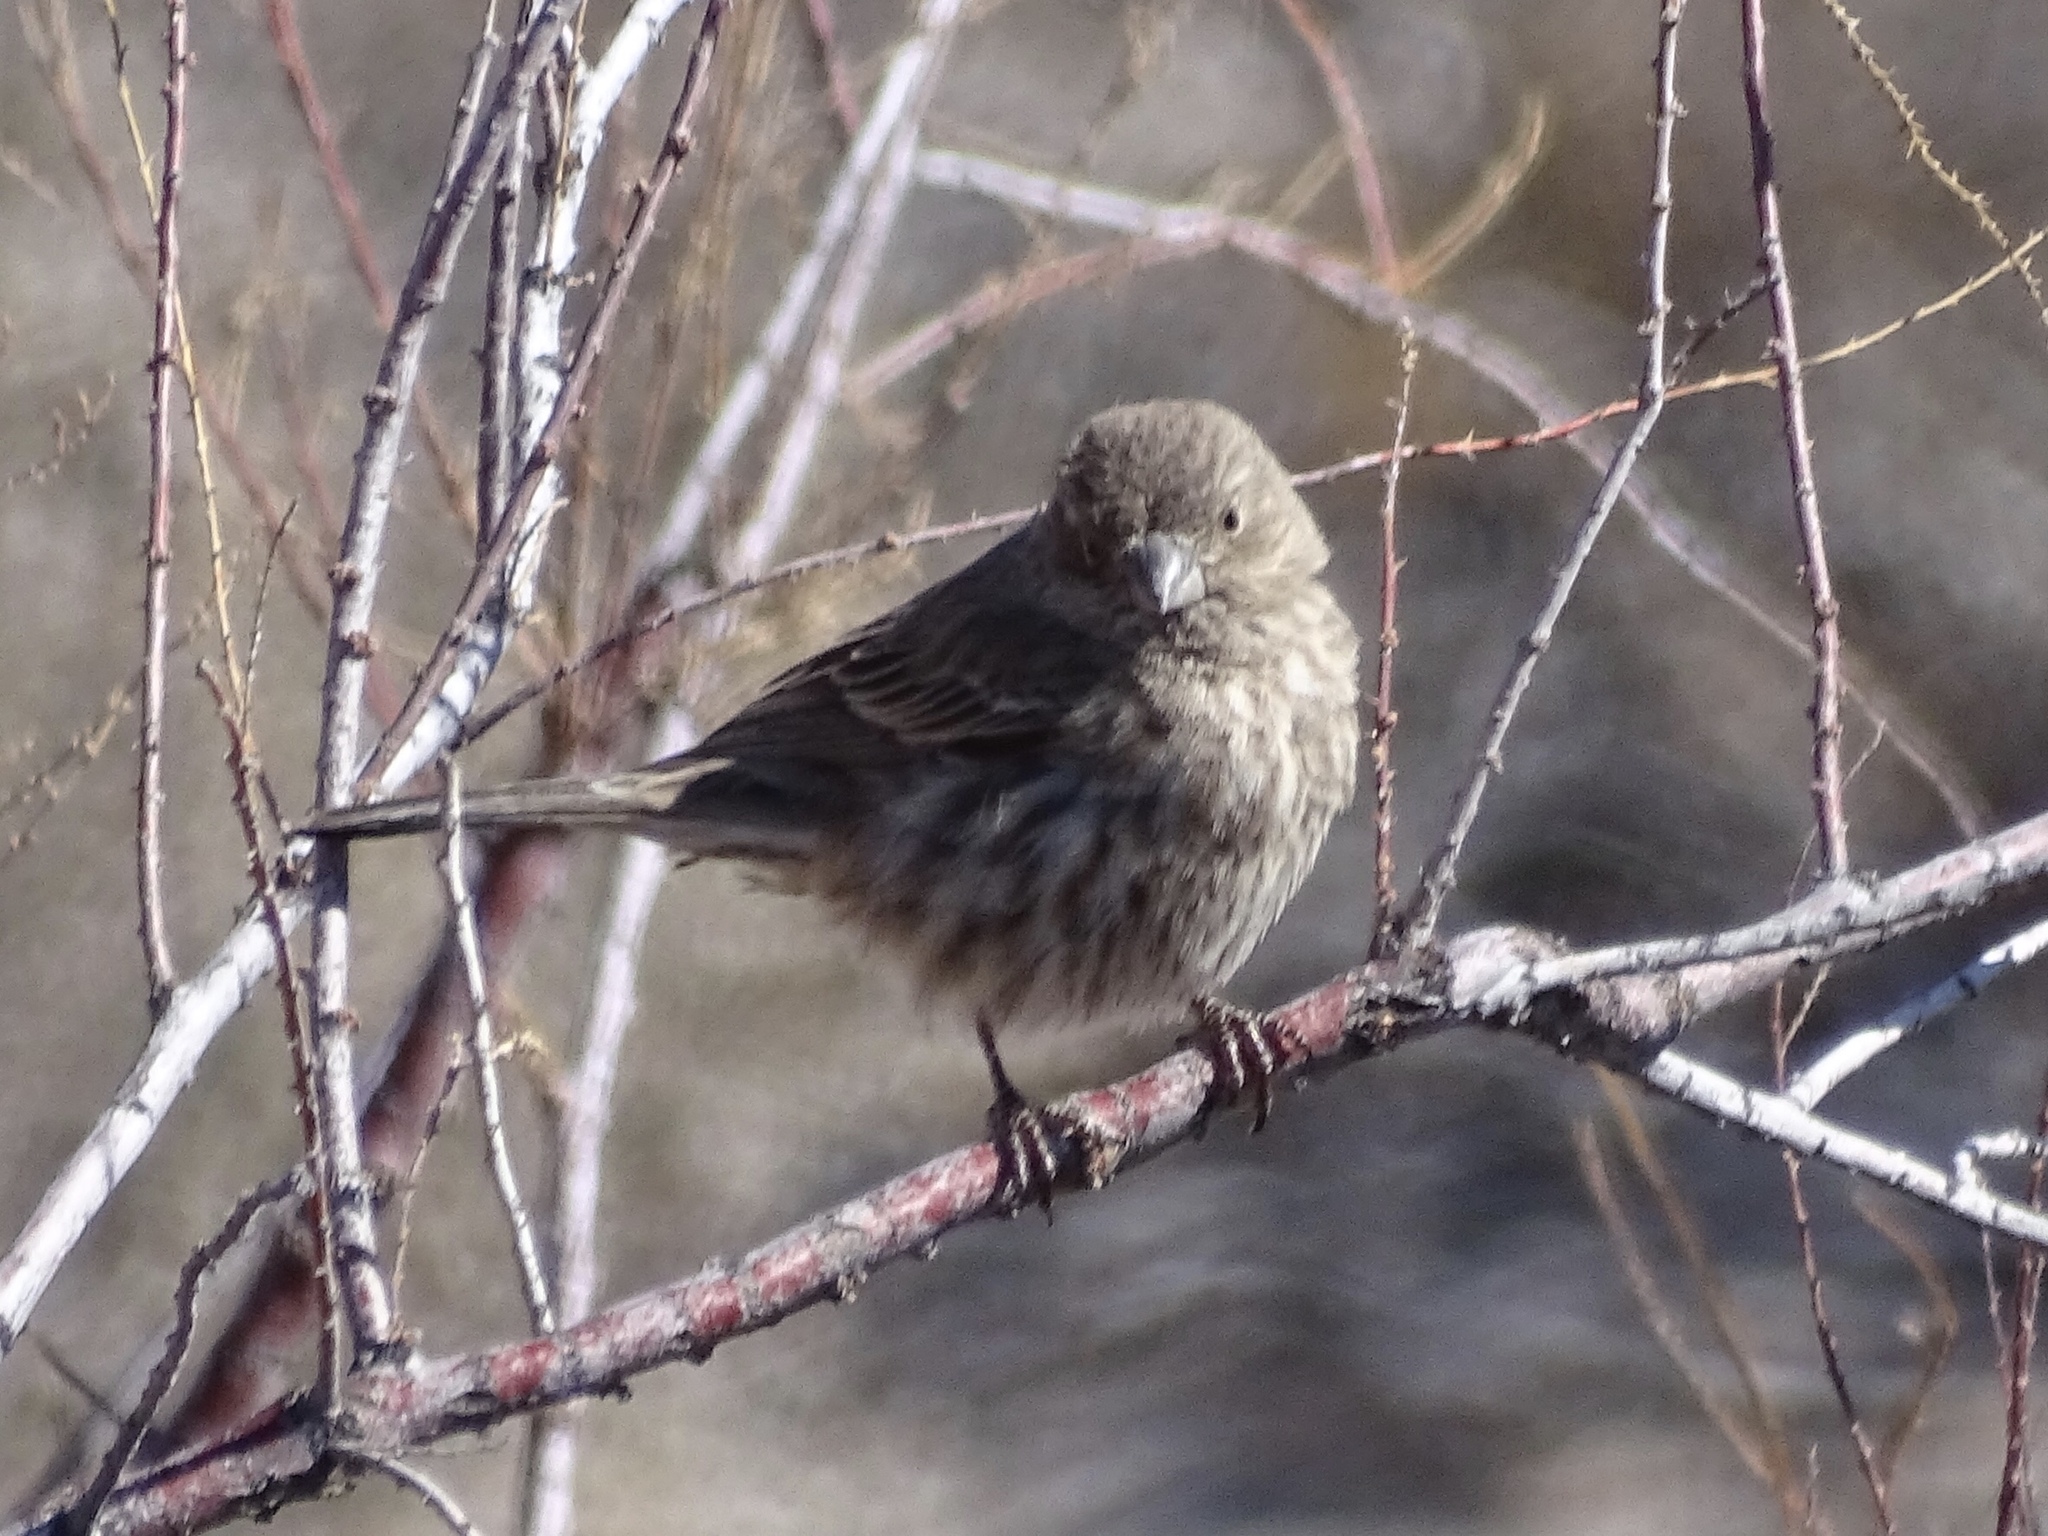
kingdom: Animalia
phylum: Chordata
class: Aves
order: Passeriformes
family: Fringillidae
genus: Haemorhous
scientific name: Haemorhous mexicanus
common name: House finch
